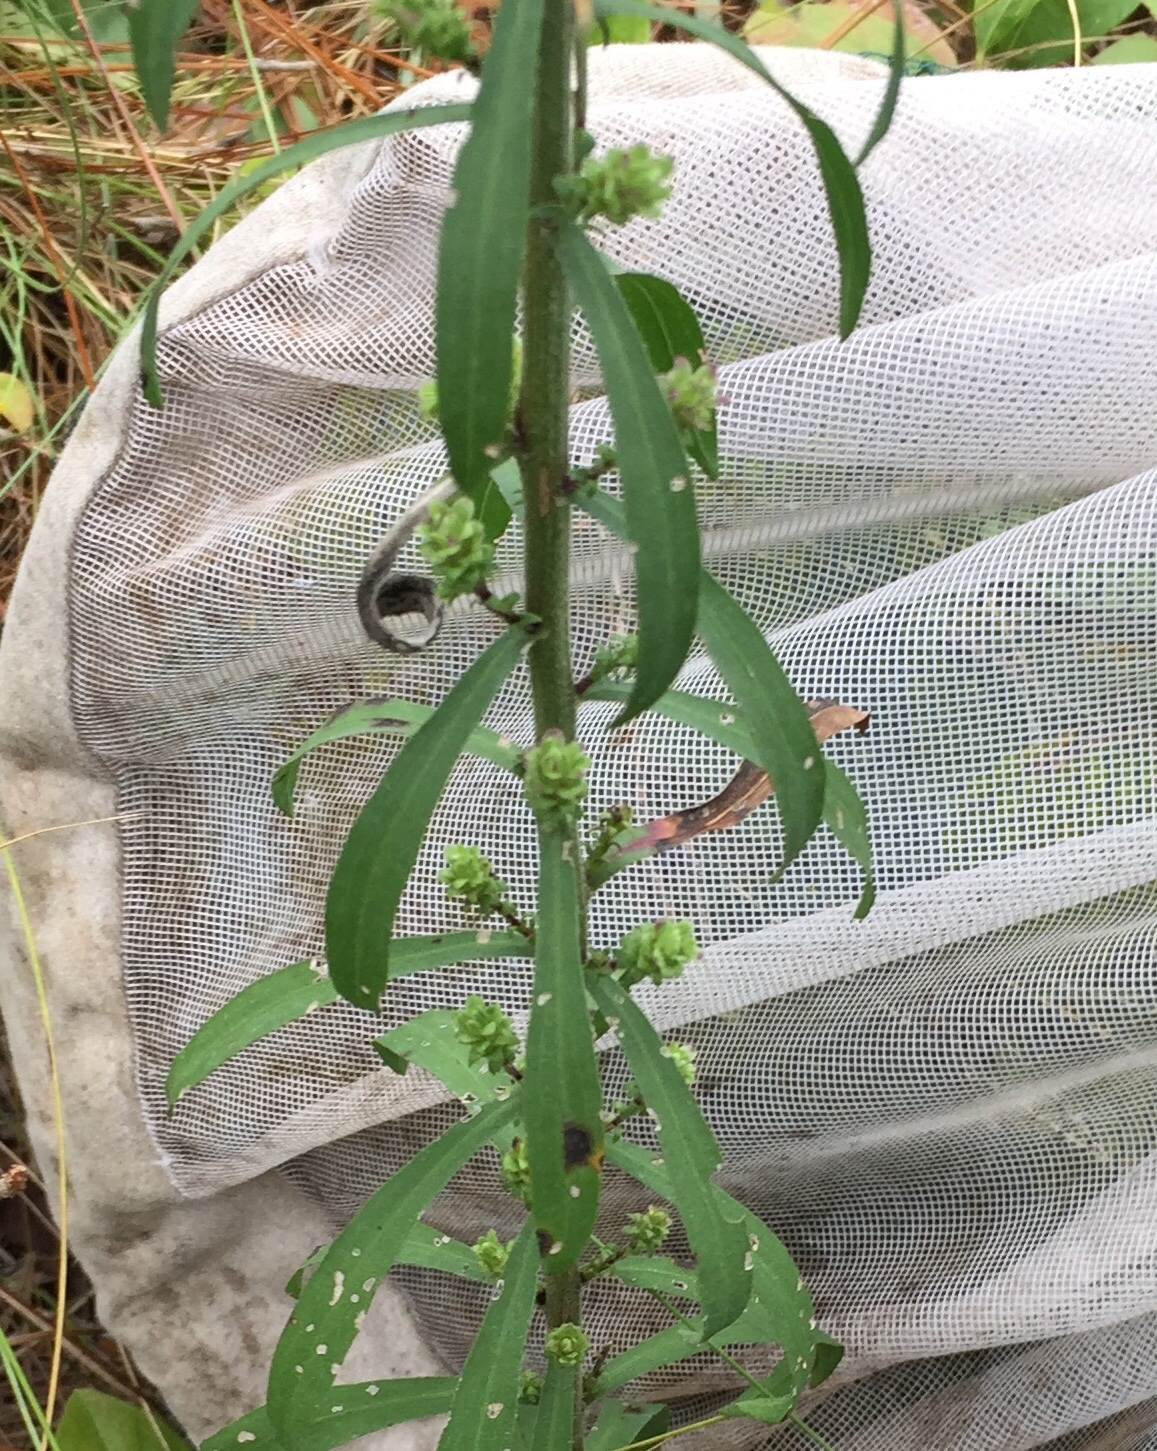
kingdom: Plantae
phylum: Tracheophyta
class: Magnoliopsida
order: Asterales
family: Asteraceae
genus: Liatris
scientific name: Liatris squarrulosa
